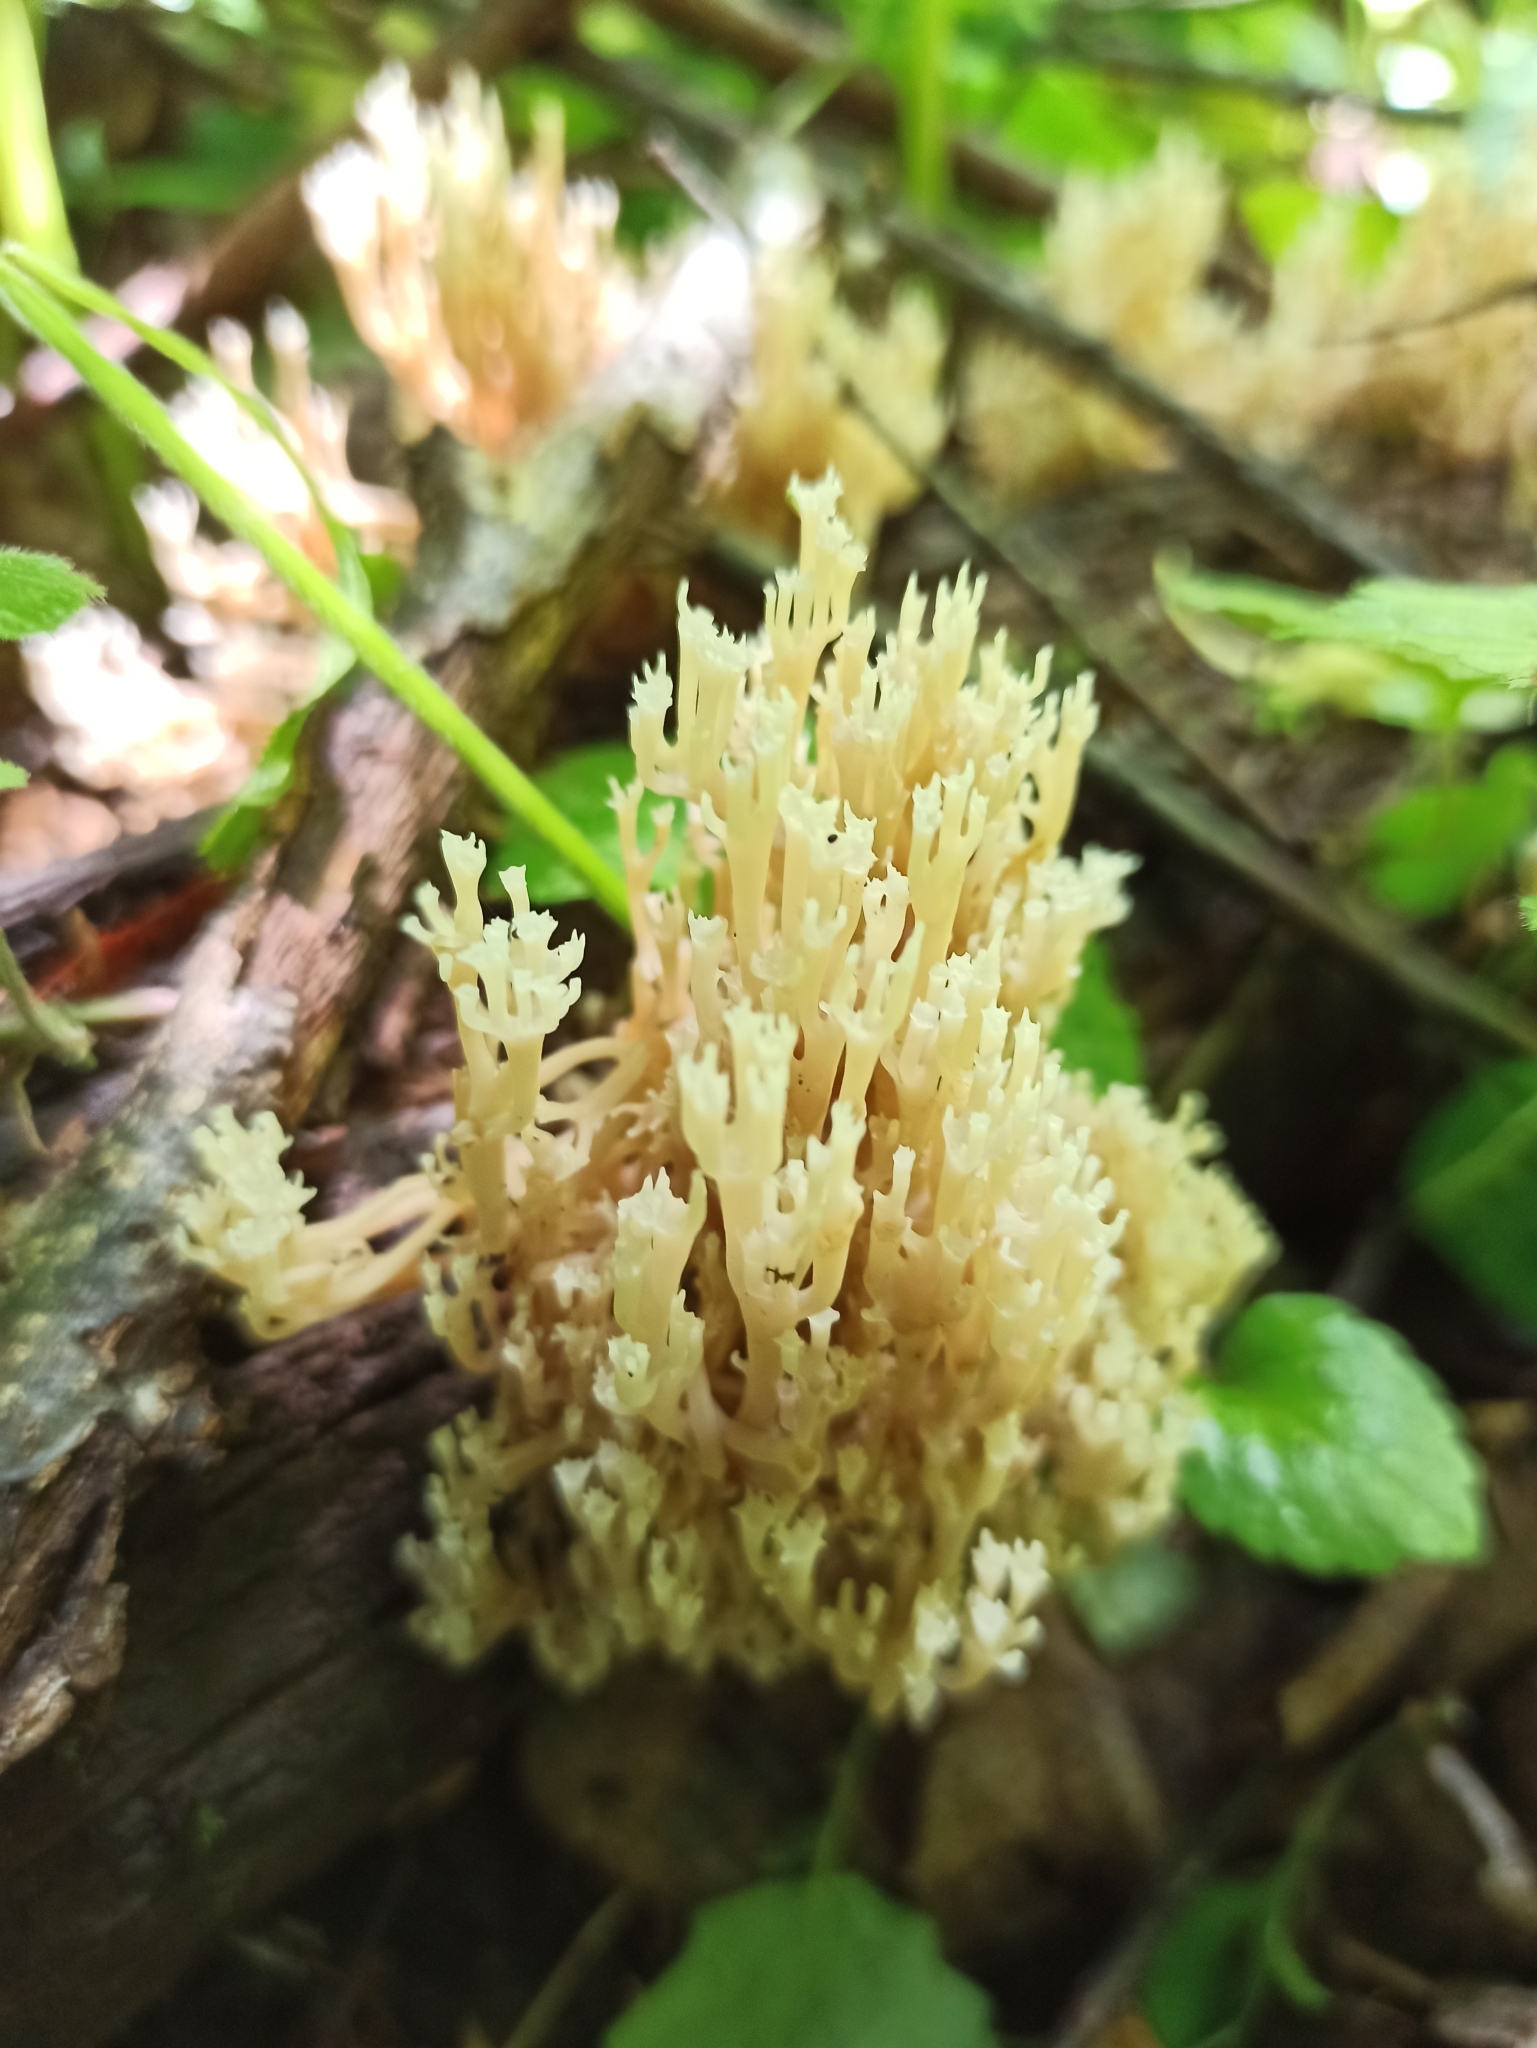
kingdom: Fungi
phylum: Basidiomycota
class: Agaricomycetes
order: Russulales
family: Auriscalpiaceae
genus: Artomyces
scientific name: Artomyces pyxidatus
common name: Crown-tipped coral fungus
